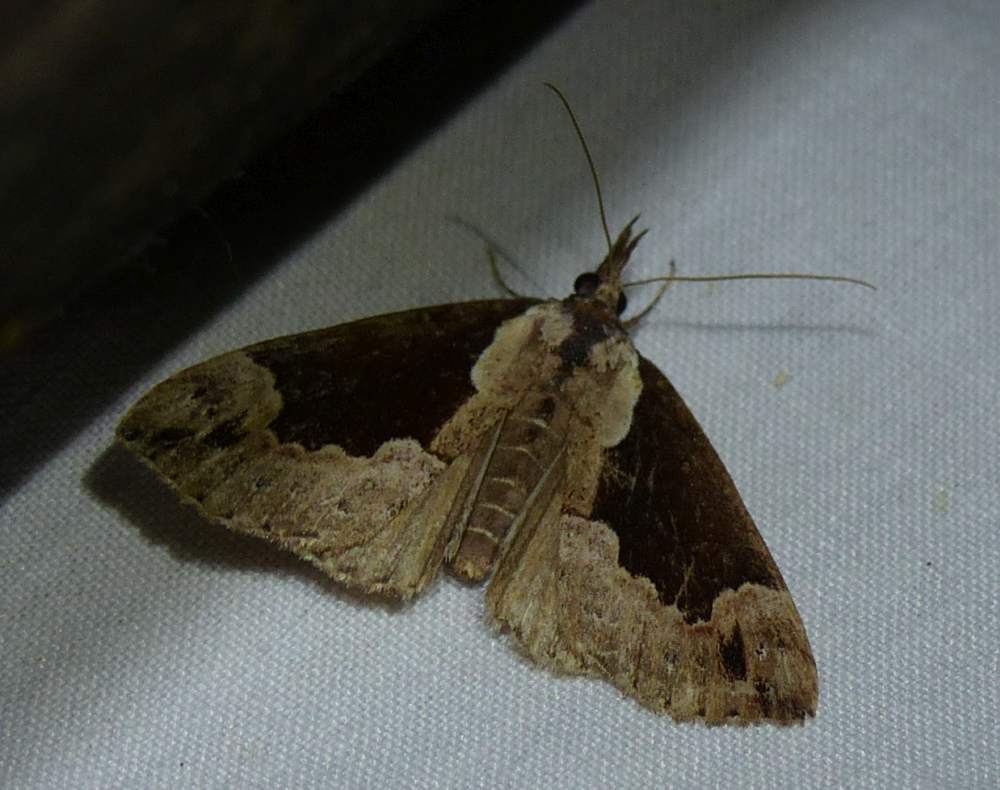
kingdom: Animalia
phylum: Arthropoda
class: Insecta
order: Lepidoptera
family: Erebidae
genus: Hypena
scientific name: Hypena baltimoralis
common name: Baltimore snout
